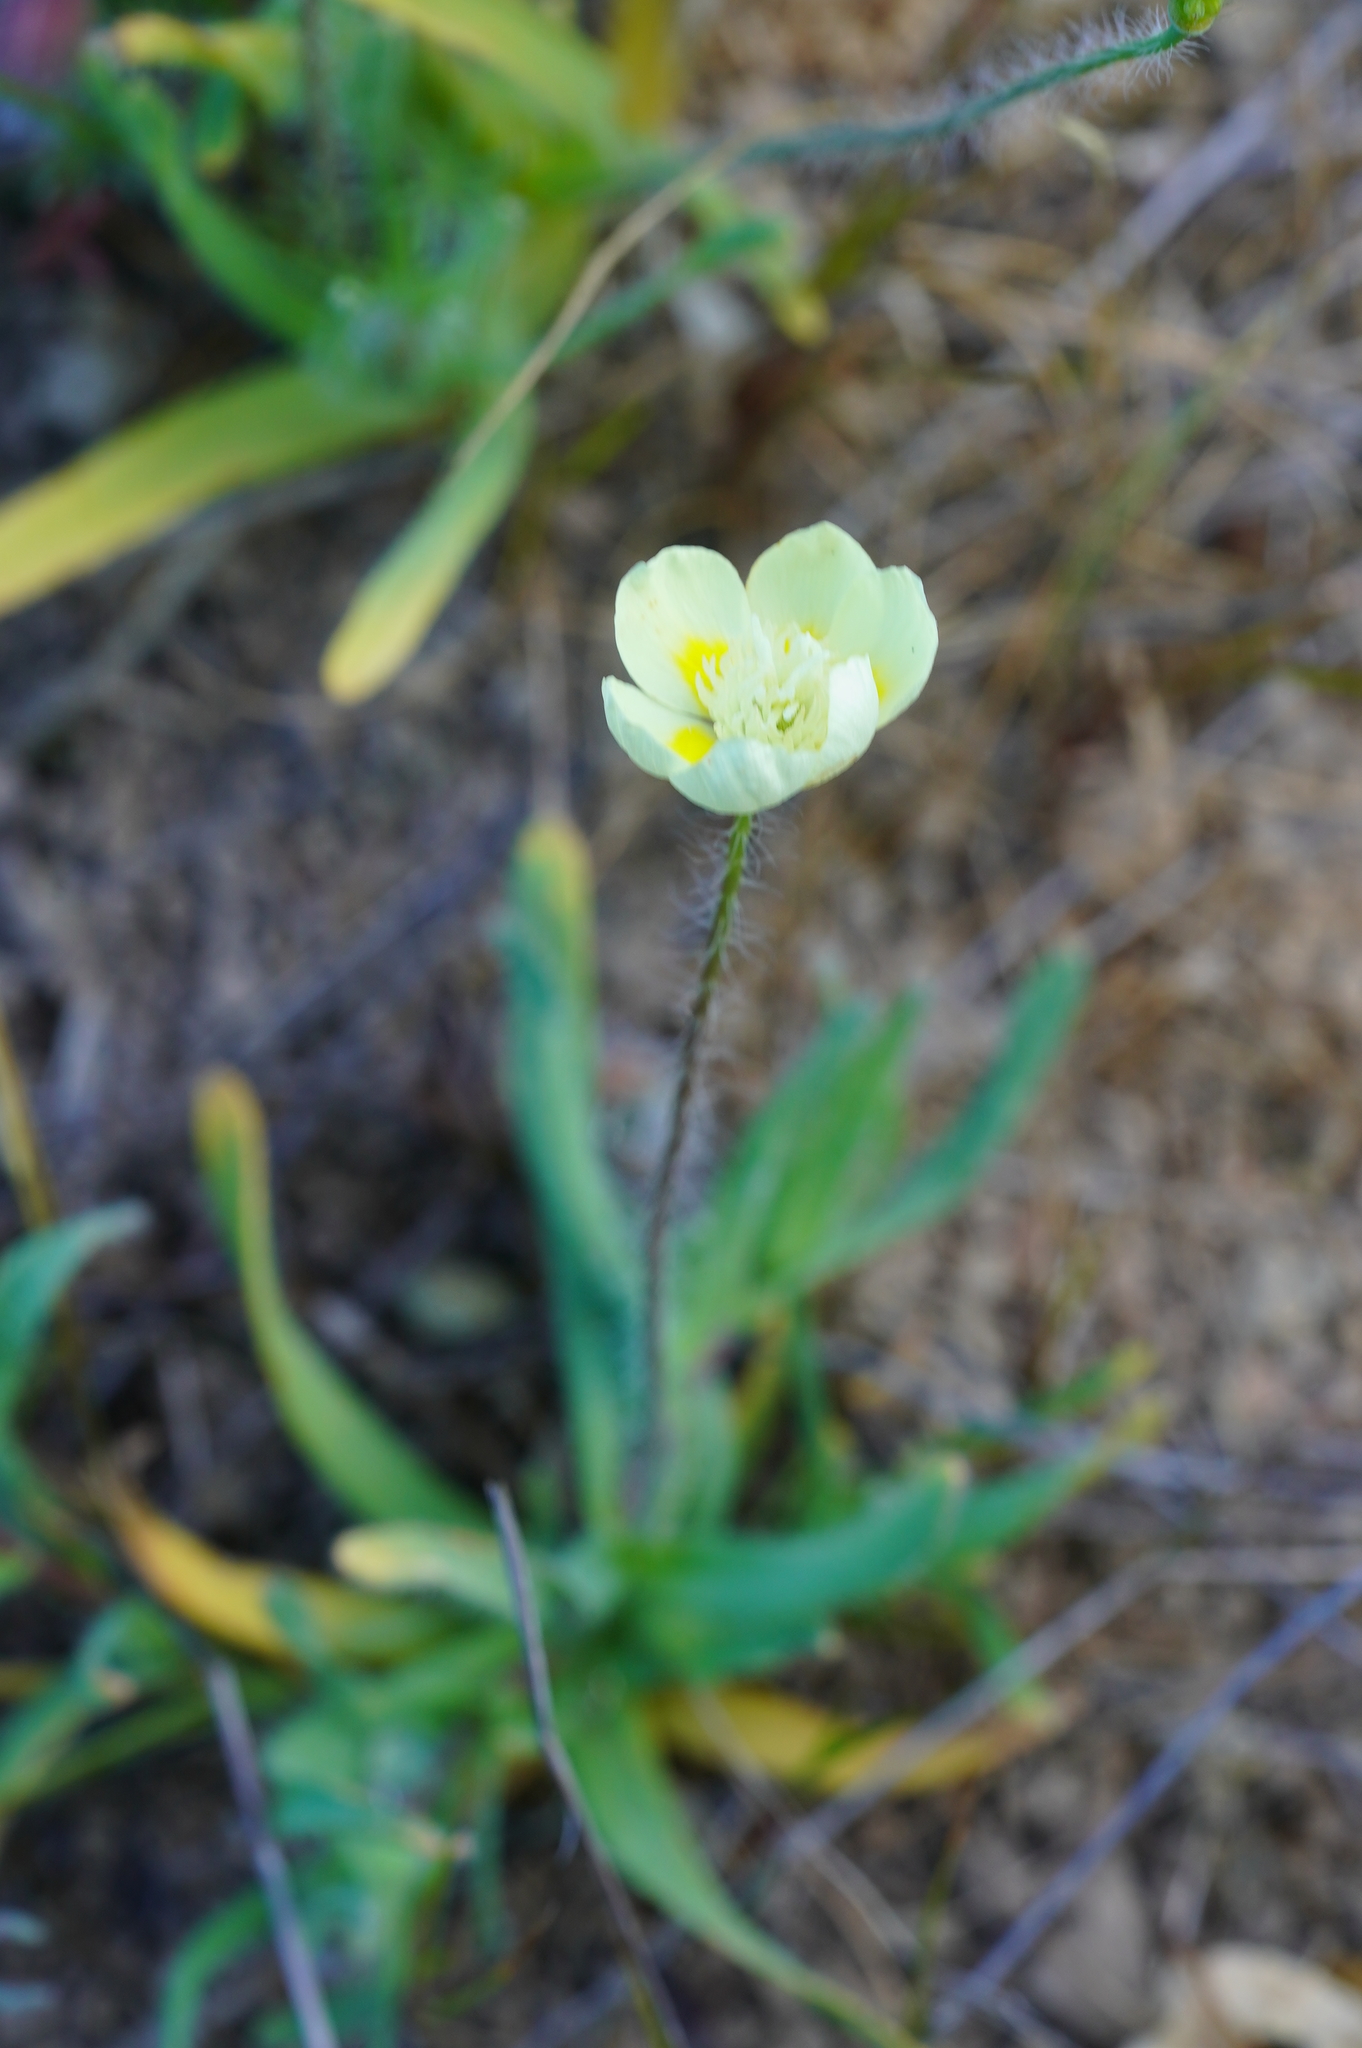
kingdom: Plantae
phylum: Tracheophyta
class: Magnoliopsida
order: Ranunculales
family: Papaveraceae
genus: Platystemon
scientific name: Platystemon californicus
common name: Cream-cups
